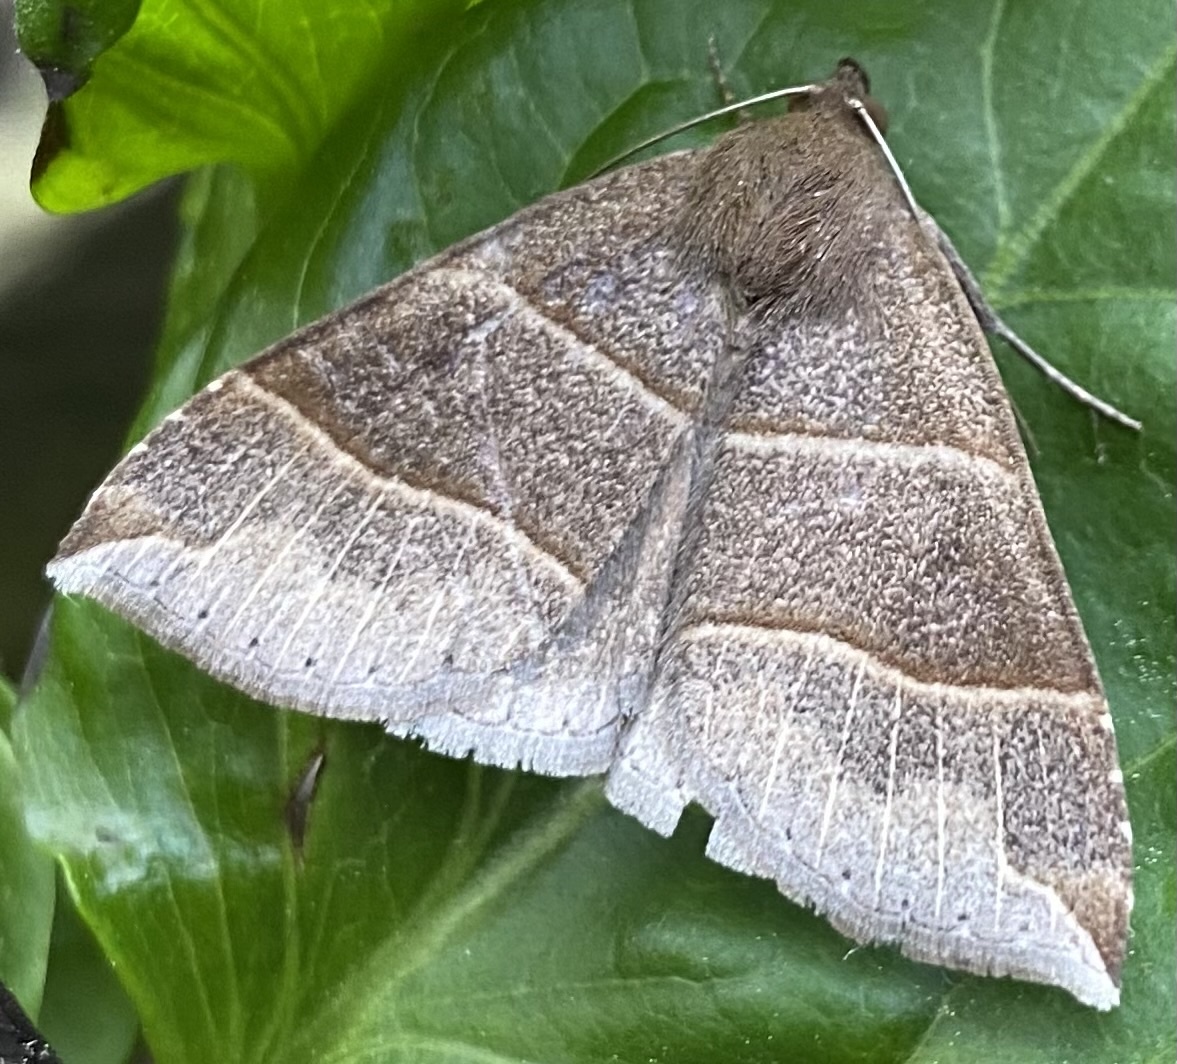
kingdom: Animalia
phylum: Arthropoda
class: Insecta
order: Lepidoptera
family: Erebidae
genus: Parallelia
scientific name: Parallelia bistriaris
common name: Maple looper moth
